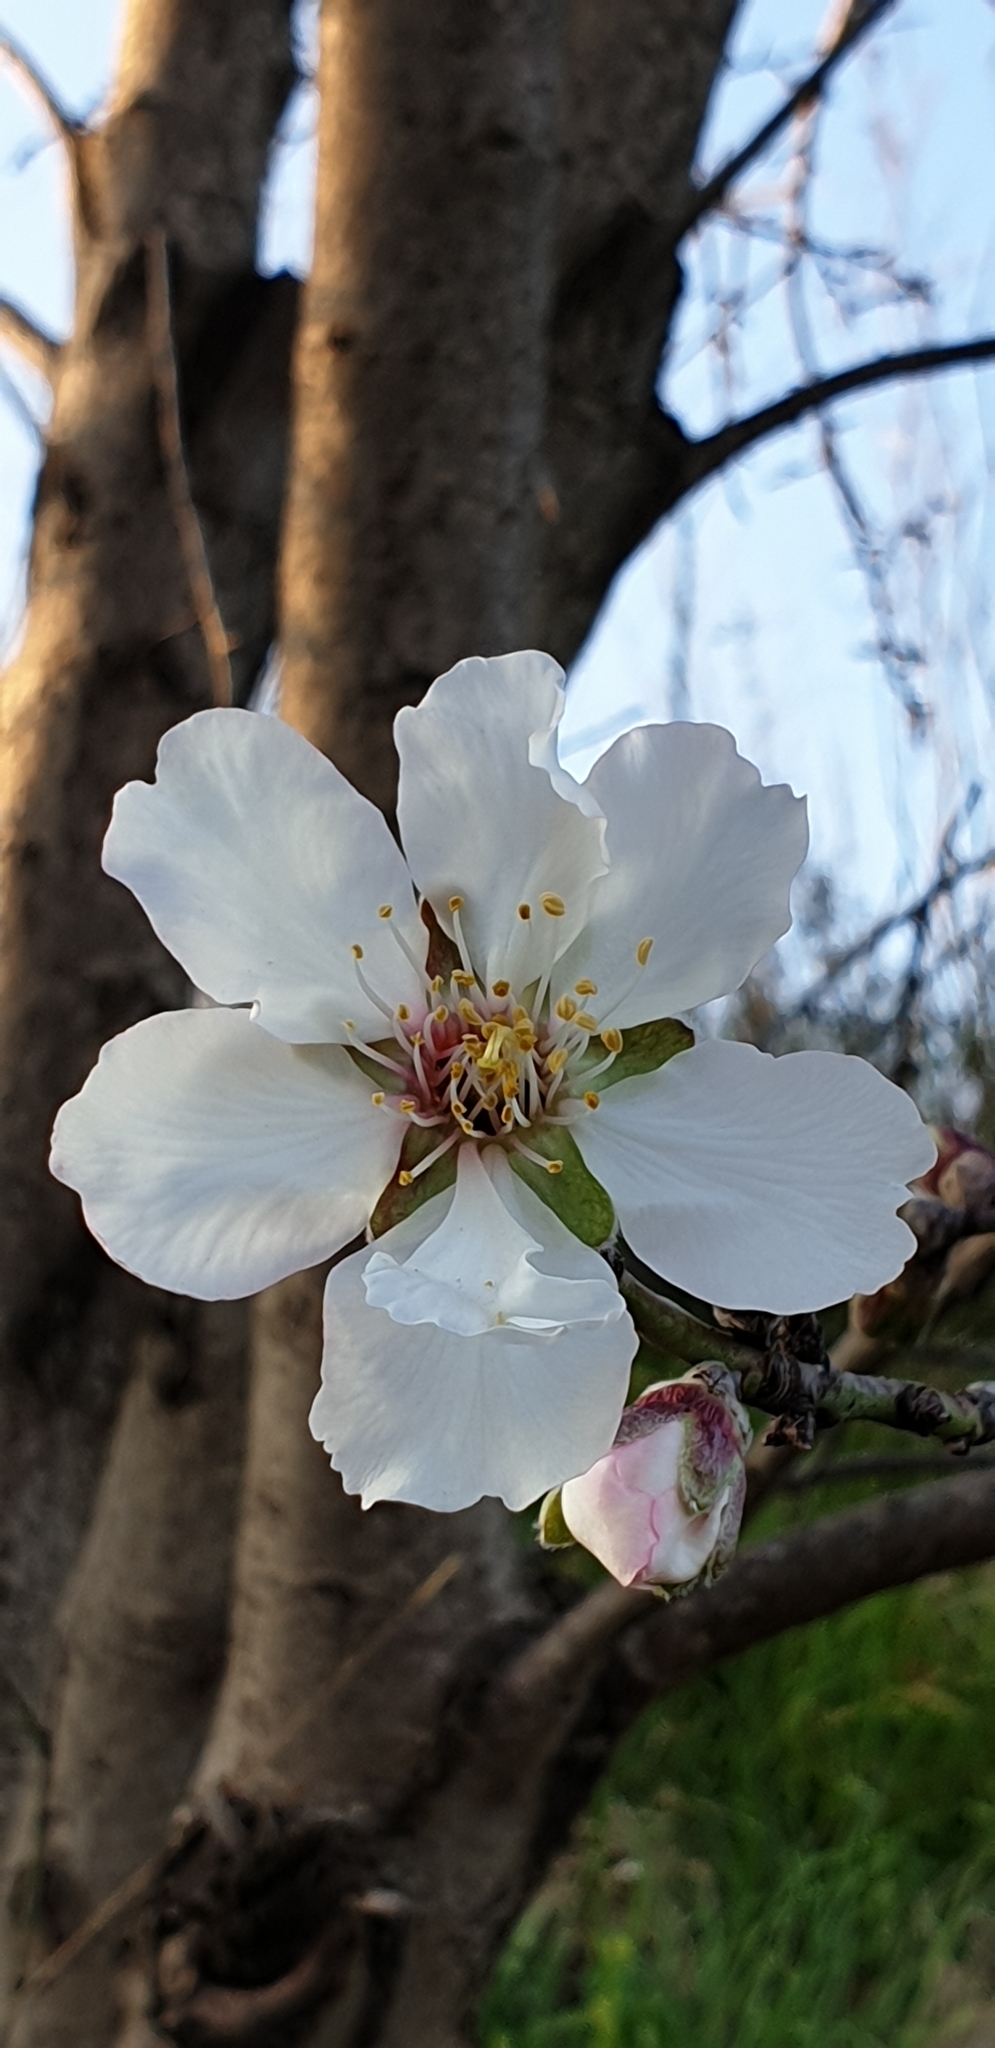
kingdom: Plantae
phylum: Tracheophyta
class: Magnoliopsida
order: Rosales
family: Rosaceae
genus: Prunus
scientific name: Prunus amygdalus
